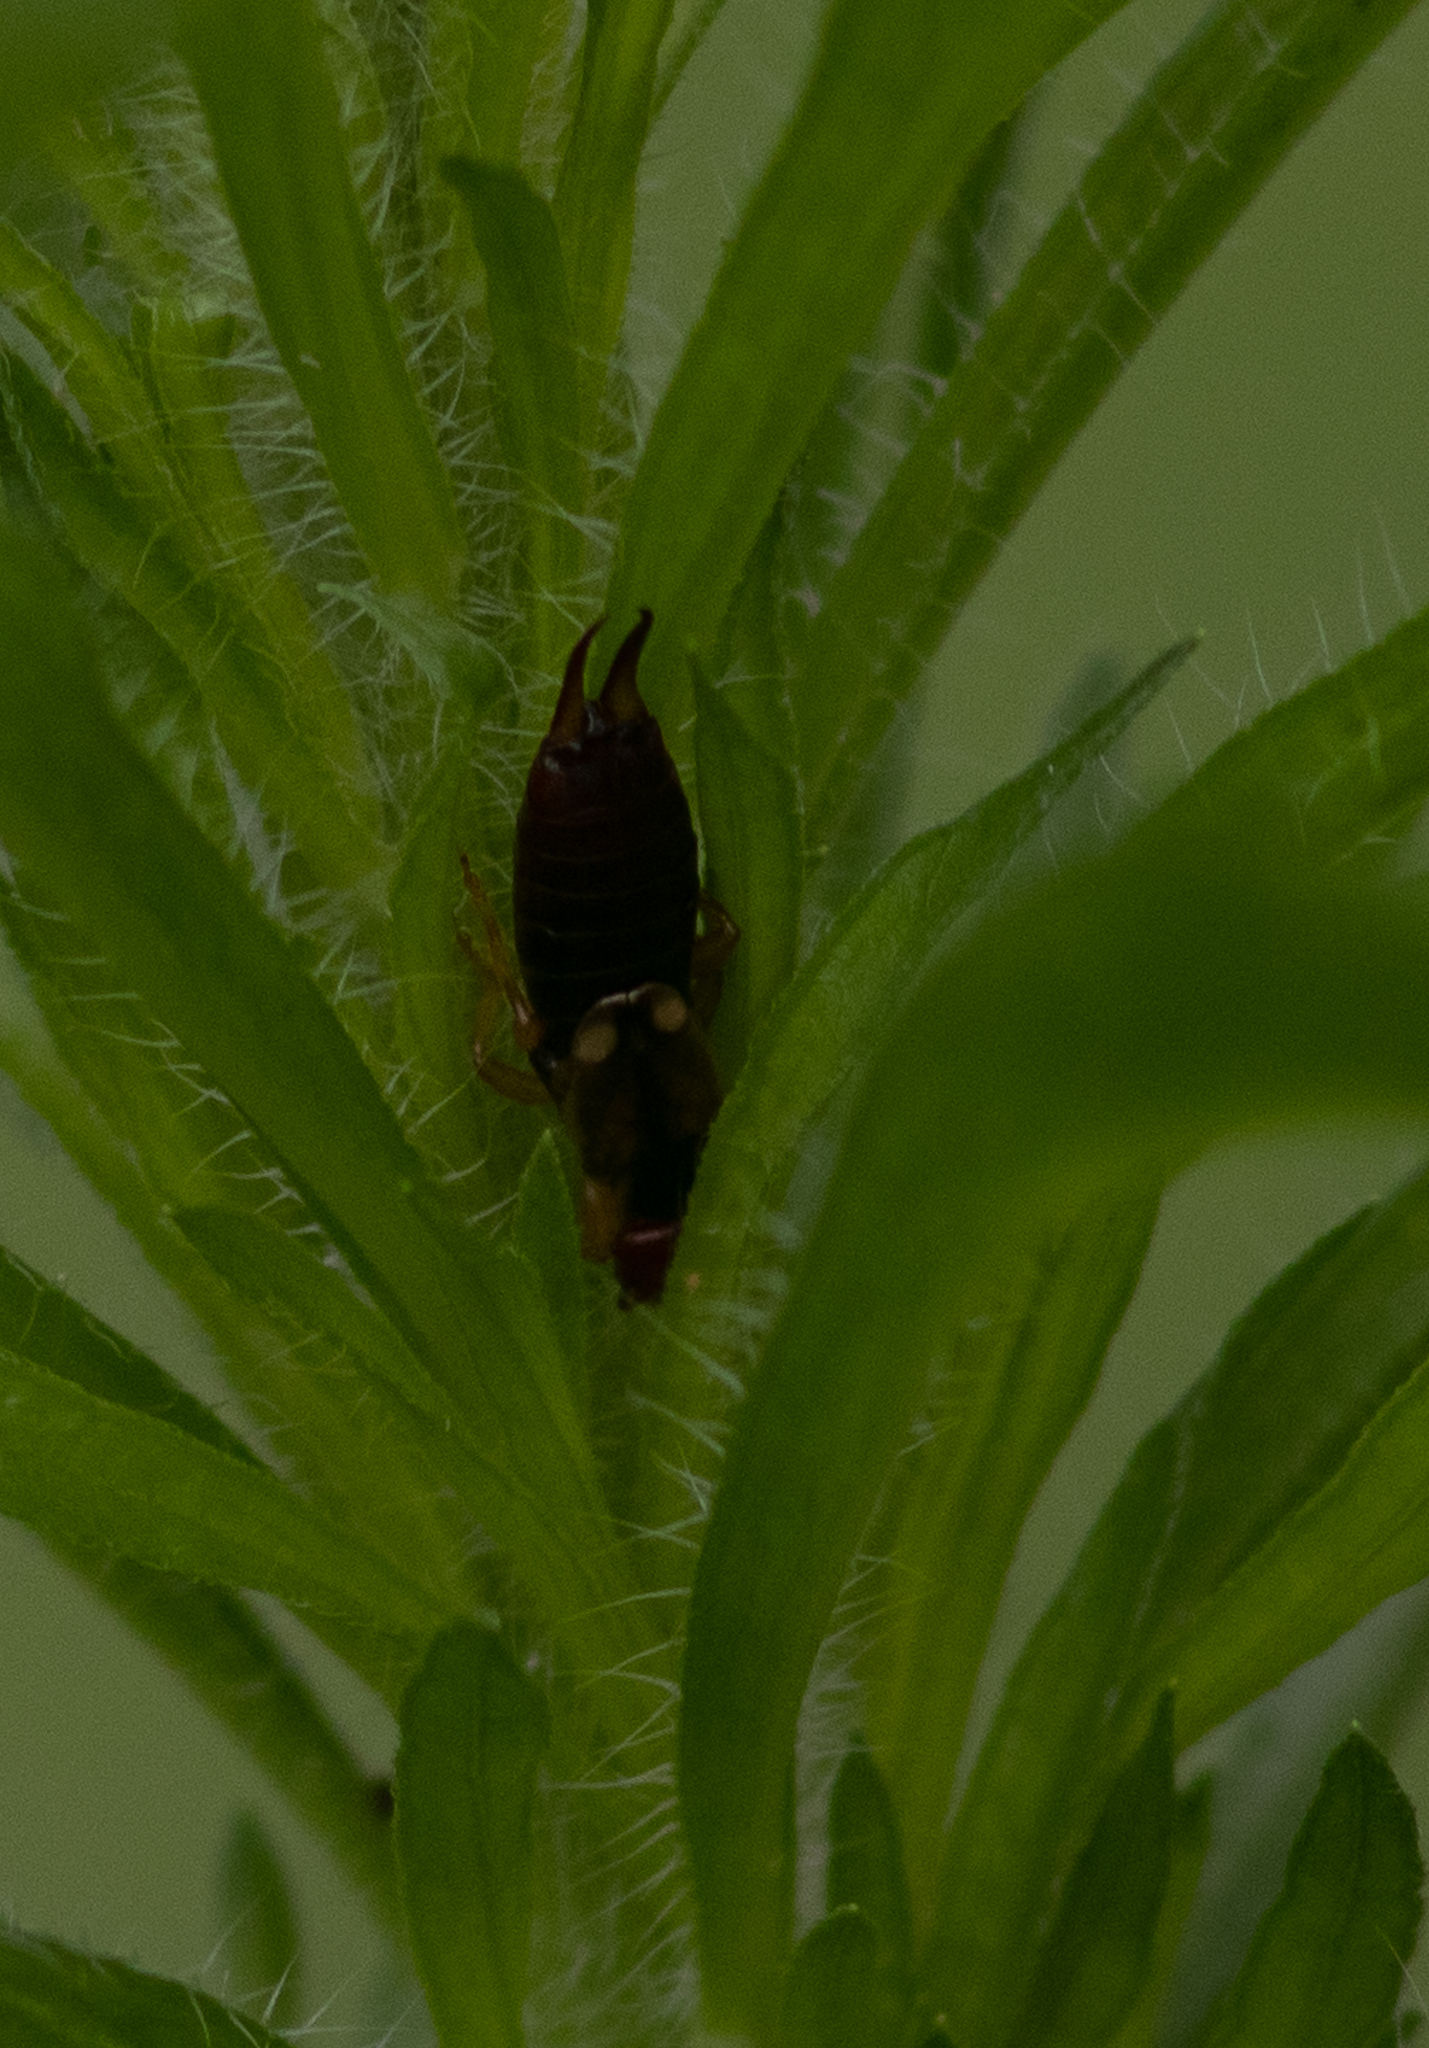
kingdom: Animalia
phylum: Arthropoda
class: Insecta
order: Dermaptera
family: Forficulidae
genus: Forficula
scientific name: Forficula
